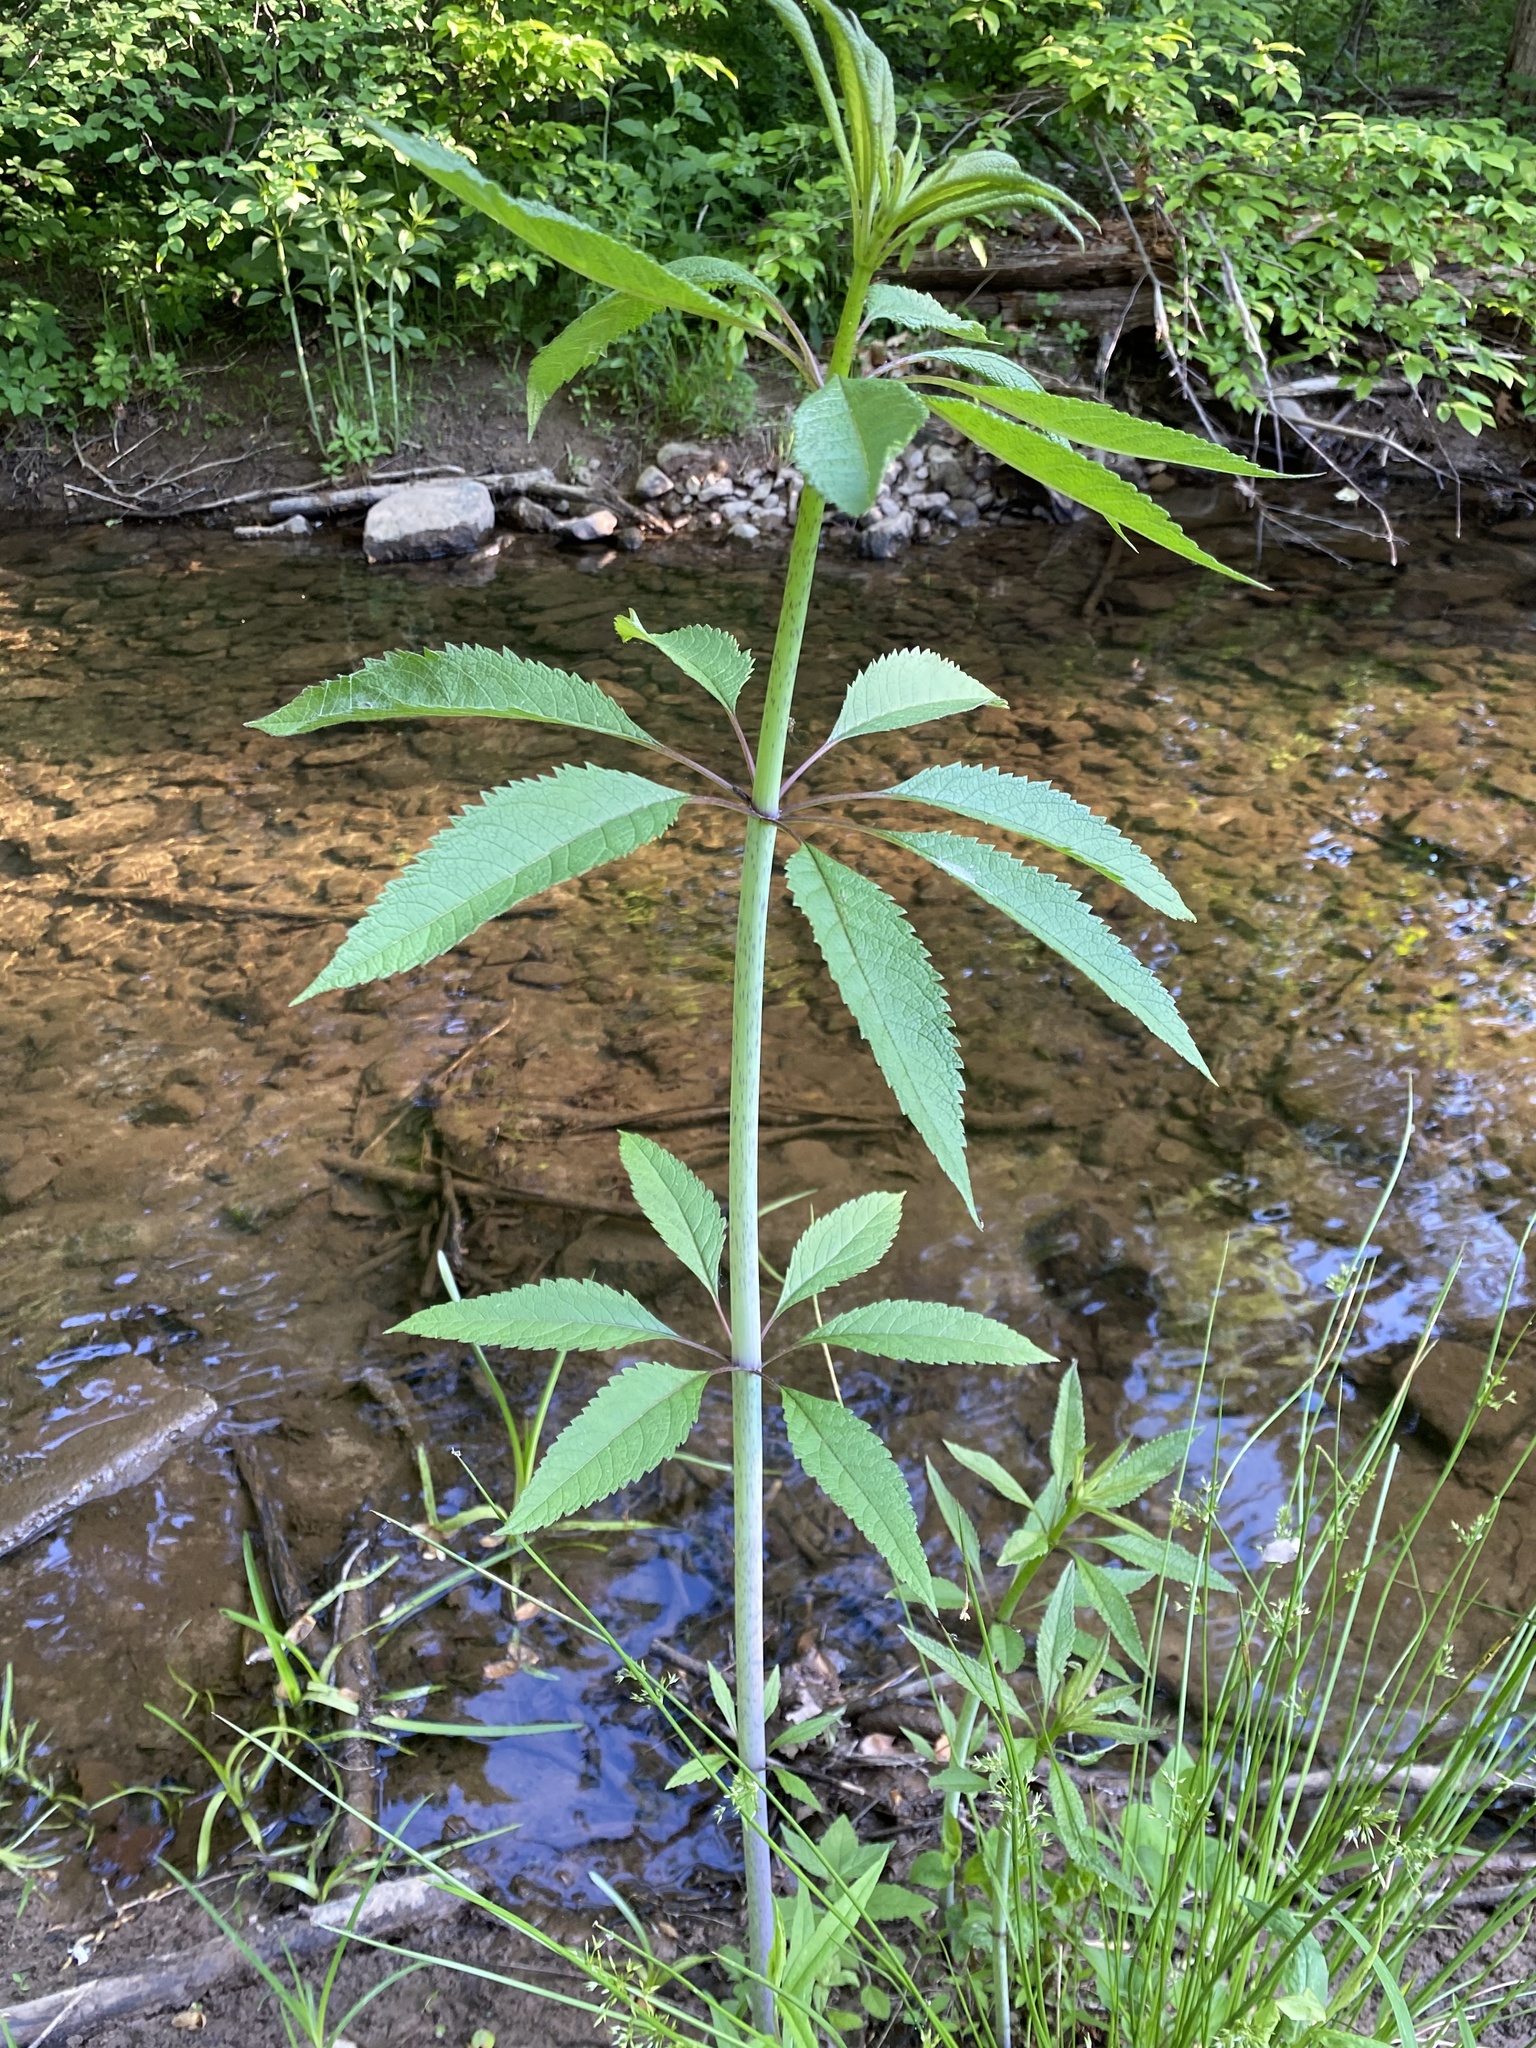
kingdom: Plantae
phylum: Tracheophyta
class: Magnoliopsida
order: Asterales
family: Asteraceae
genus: Eutrochium
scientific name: Eutrochium fistulosum
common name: Trumpetweed
